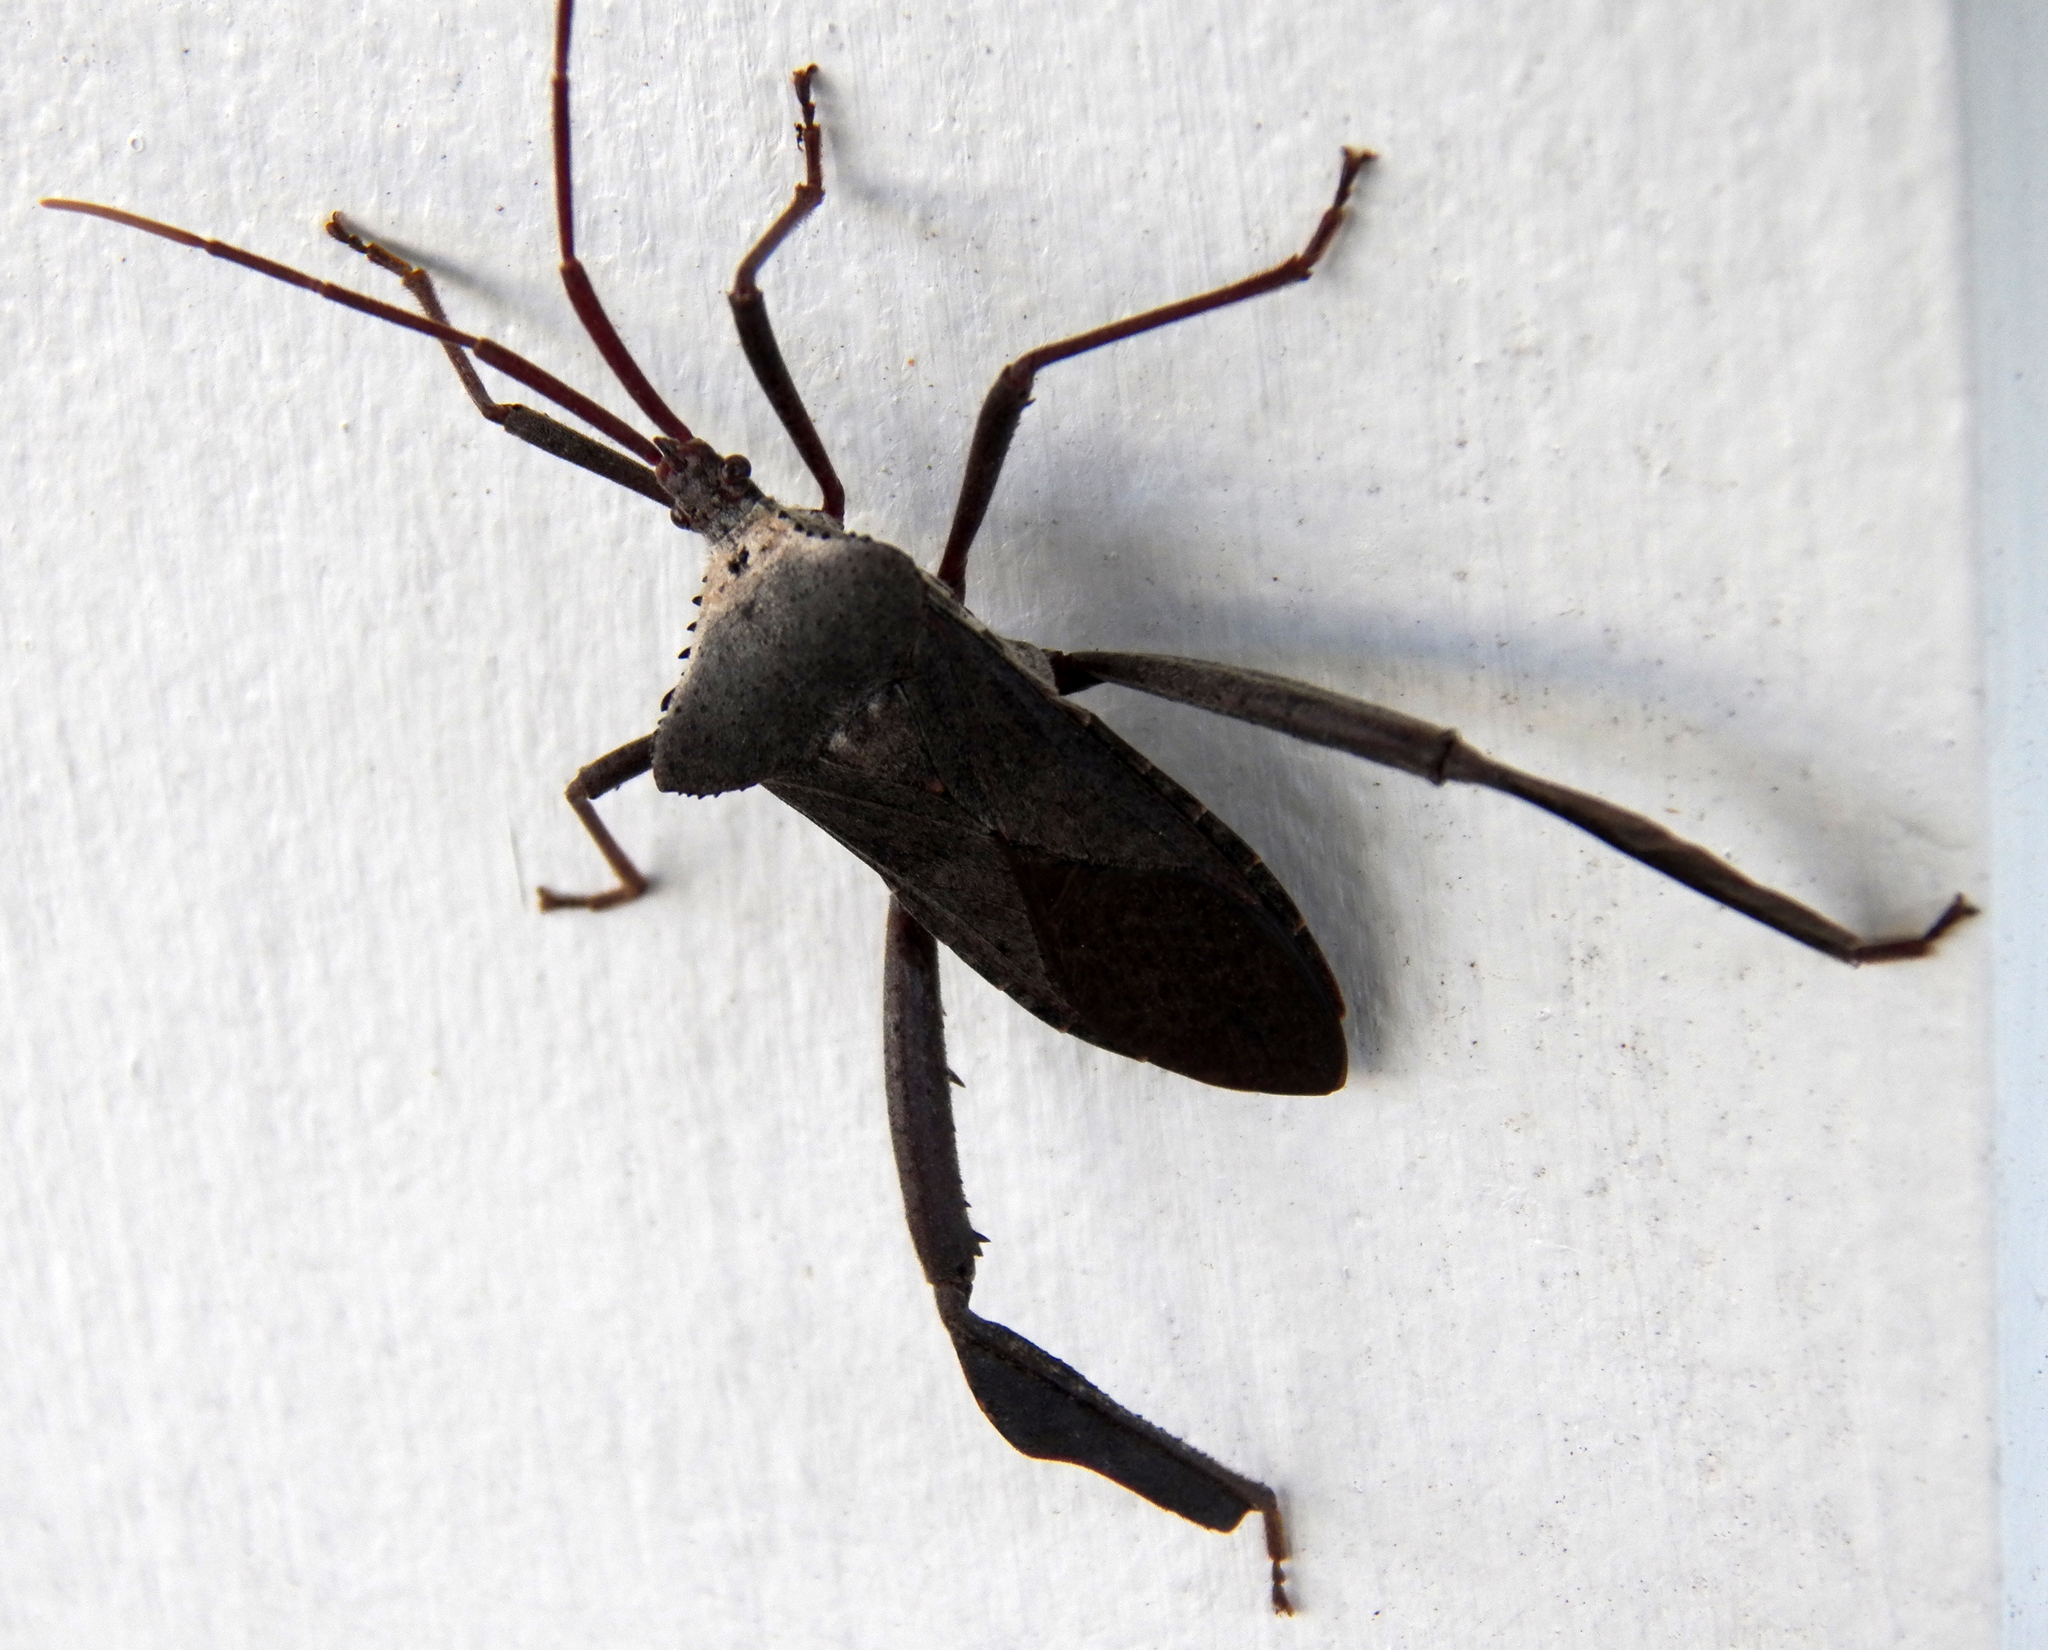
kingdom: Animalia
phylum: Arthropoda
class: Insecta
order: Hemiptera
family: Coreidae
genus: Acanthocephala
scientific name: Acanthocephala declivis
